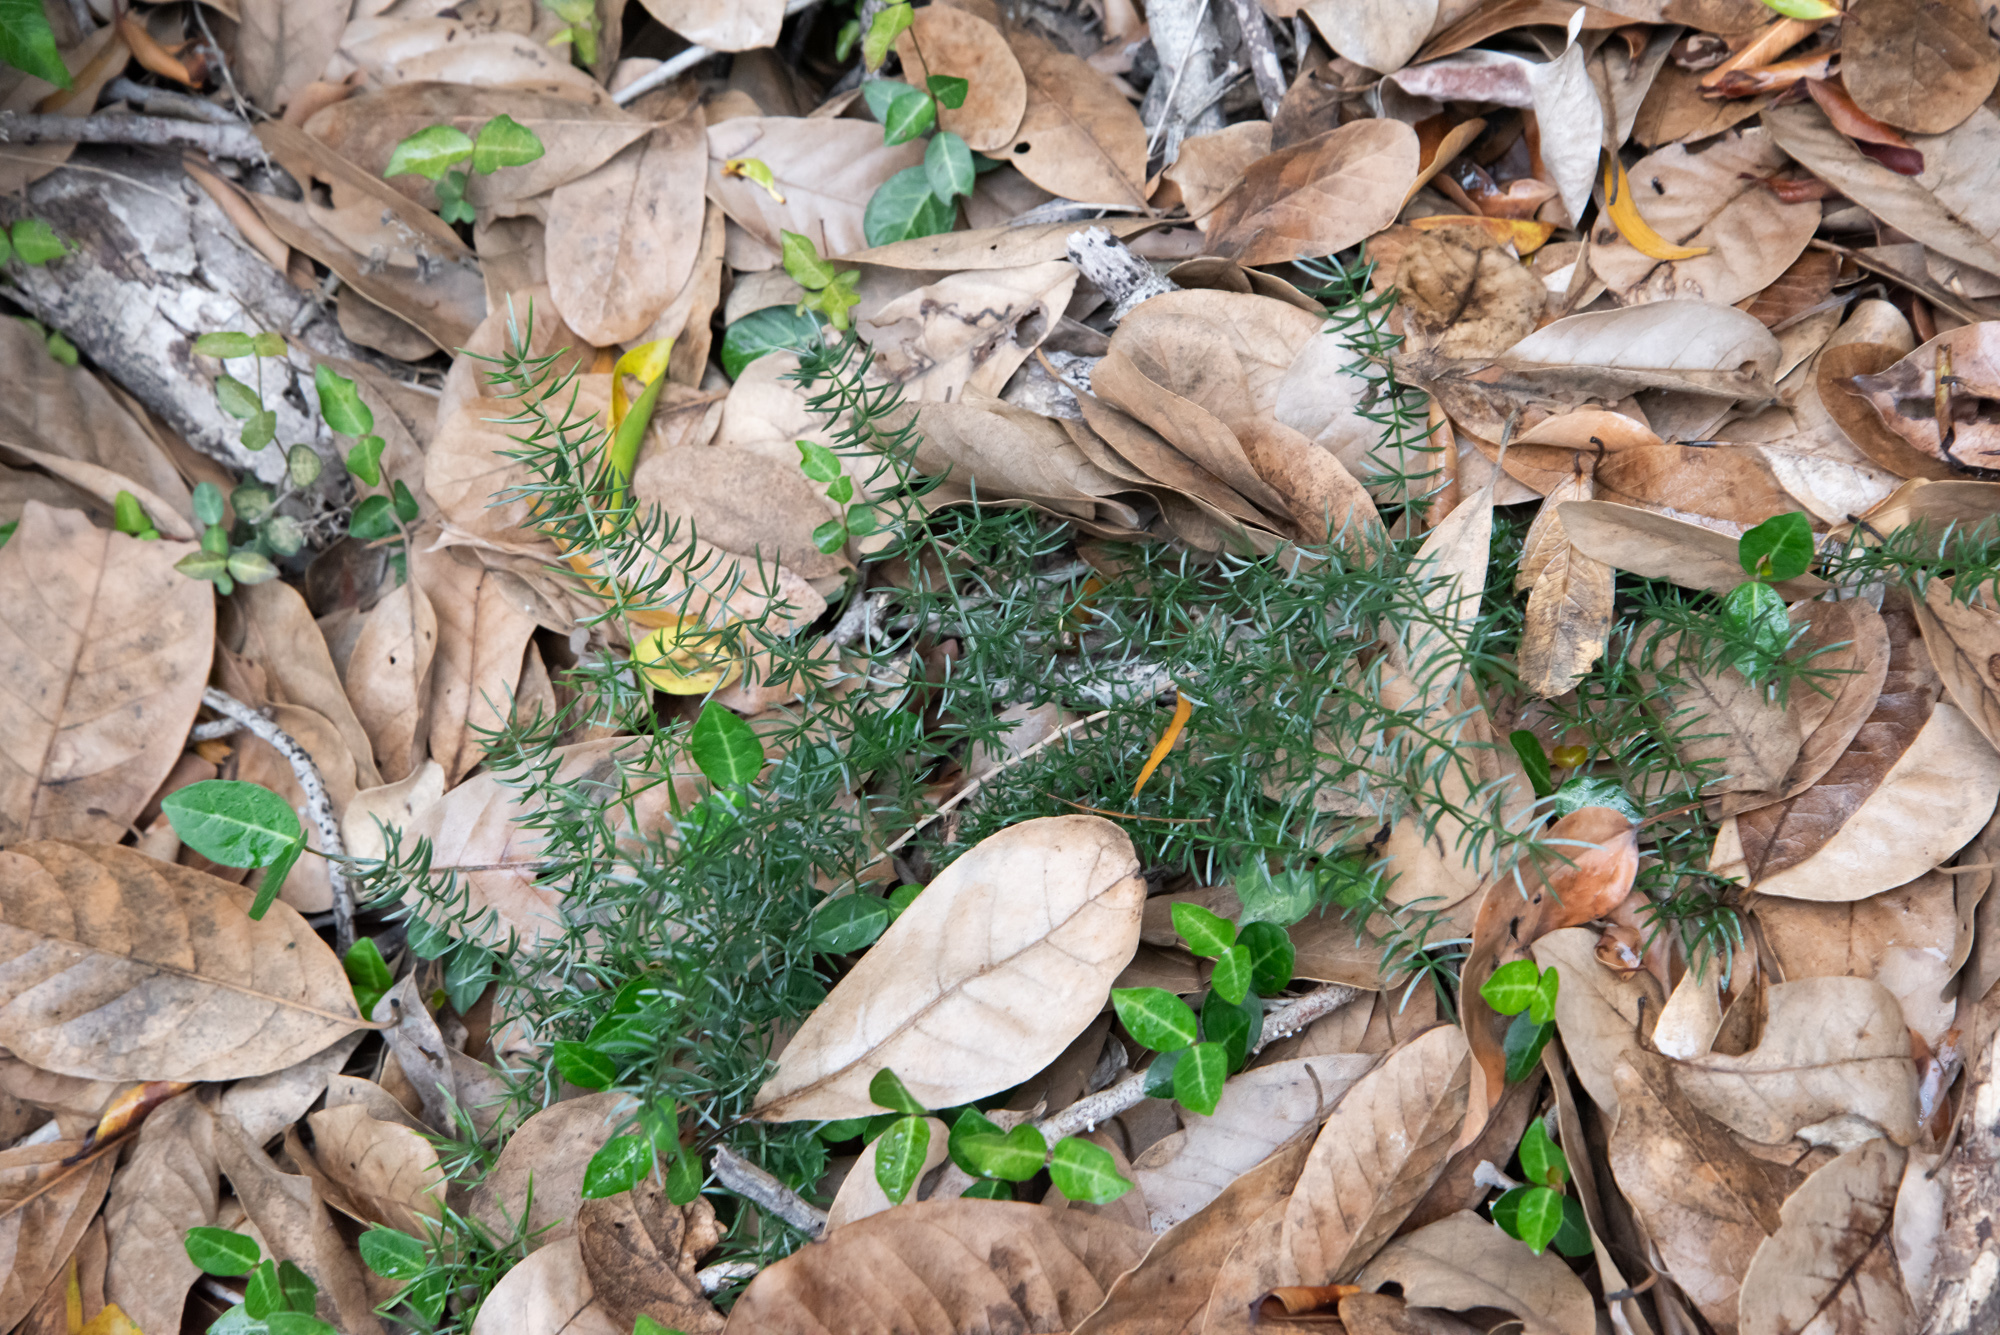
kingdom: Plantae
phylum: Tracheophyta
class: Liliopsida
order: Asparagales
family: Asparagaceae
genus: Asparagus
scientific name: Asparagus cochinchinensis
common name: Chinese asparagus
